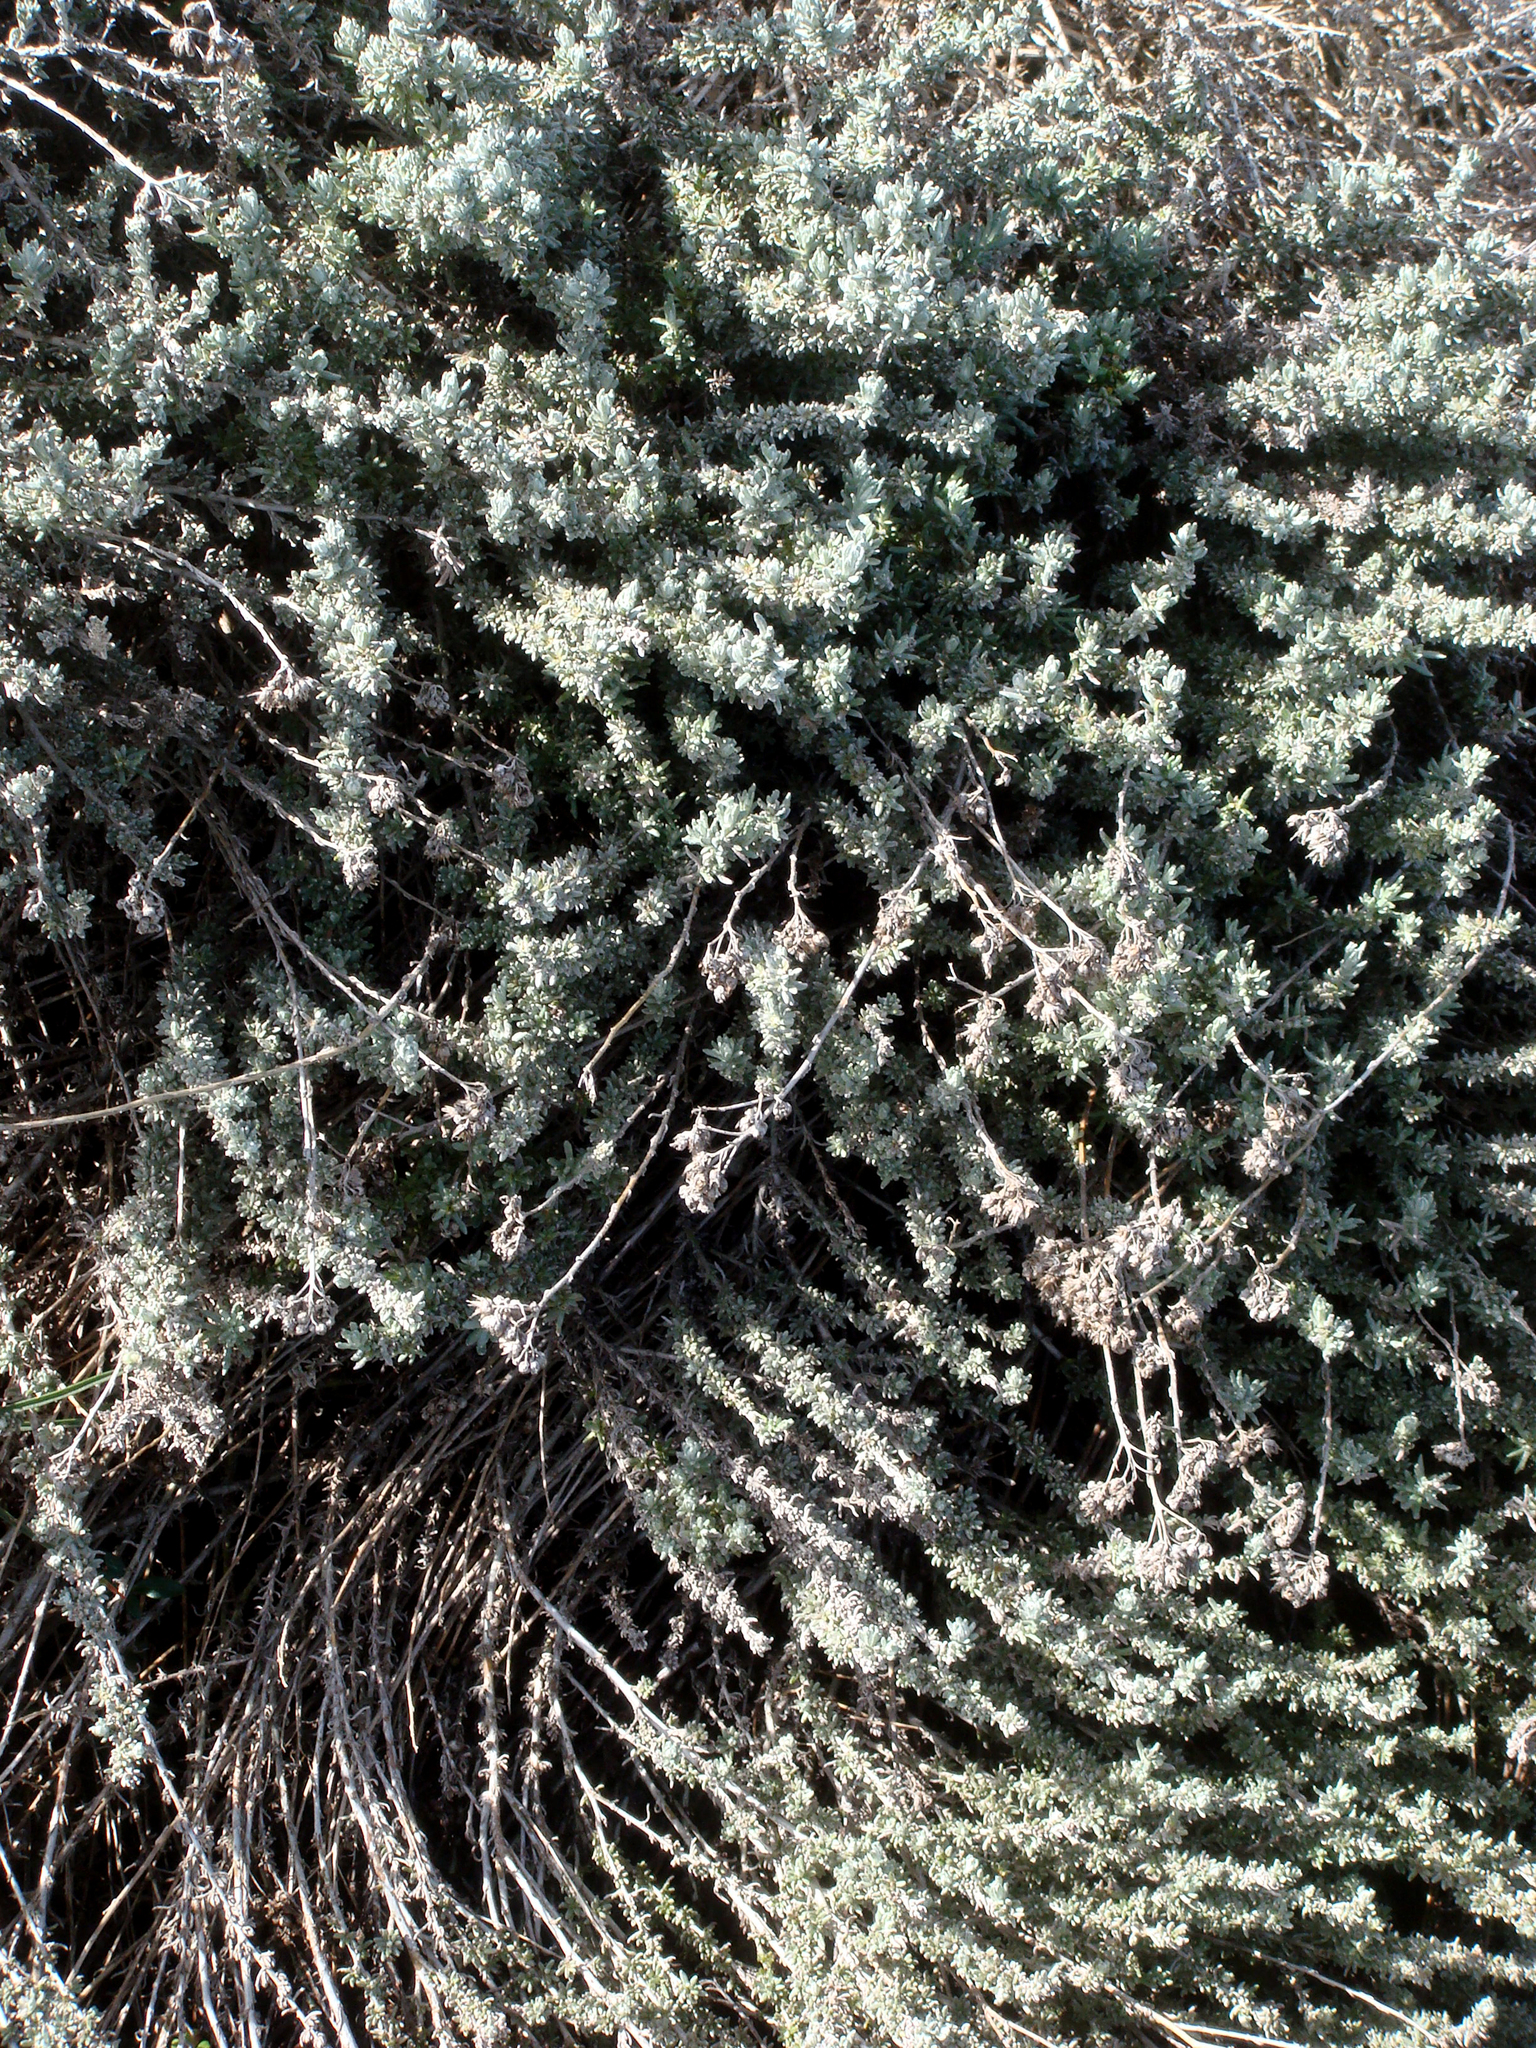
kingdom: Plantae
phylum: Tracheophyta
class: Magnoliopsida
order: Asterales
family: Asteraceae
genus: Helichrysum
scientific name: Helichrysum italicum
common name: Curryplant
